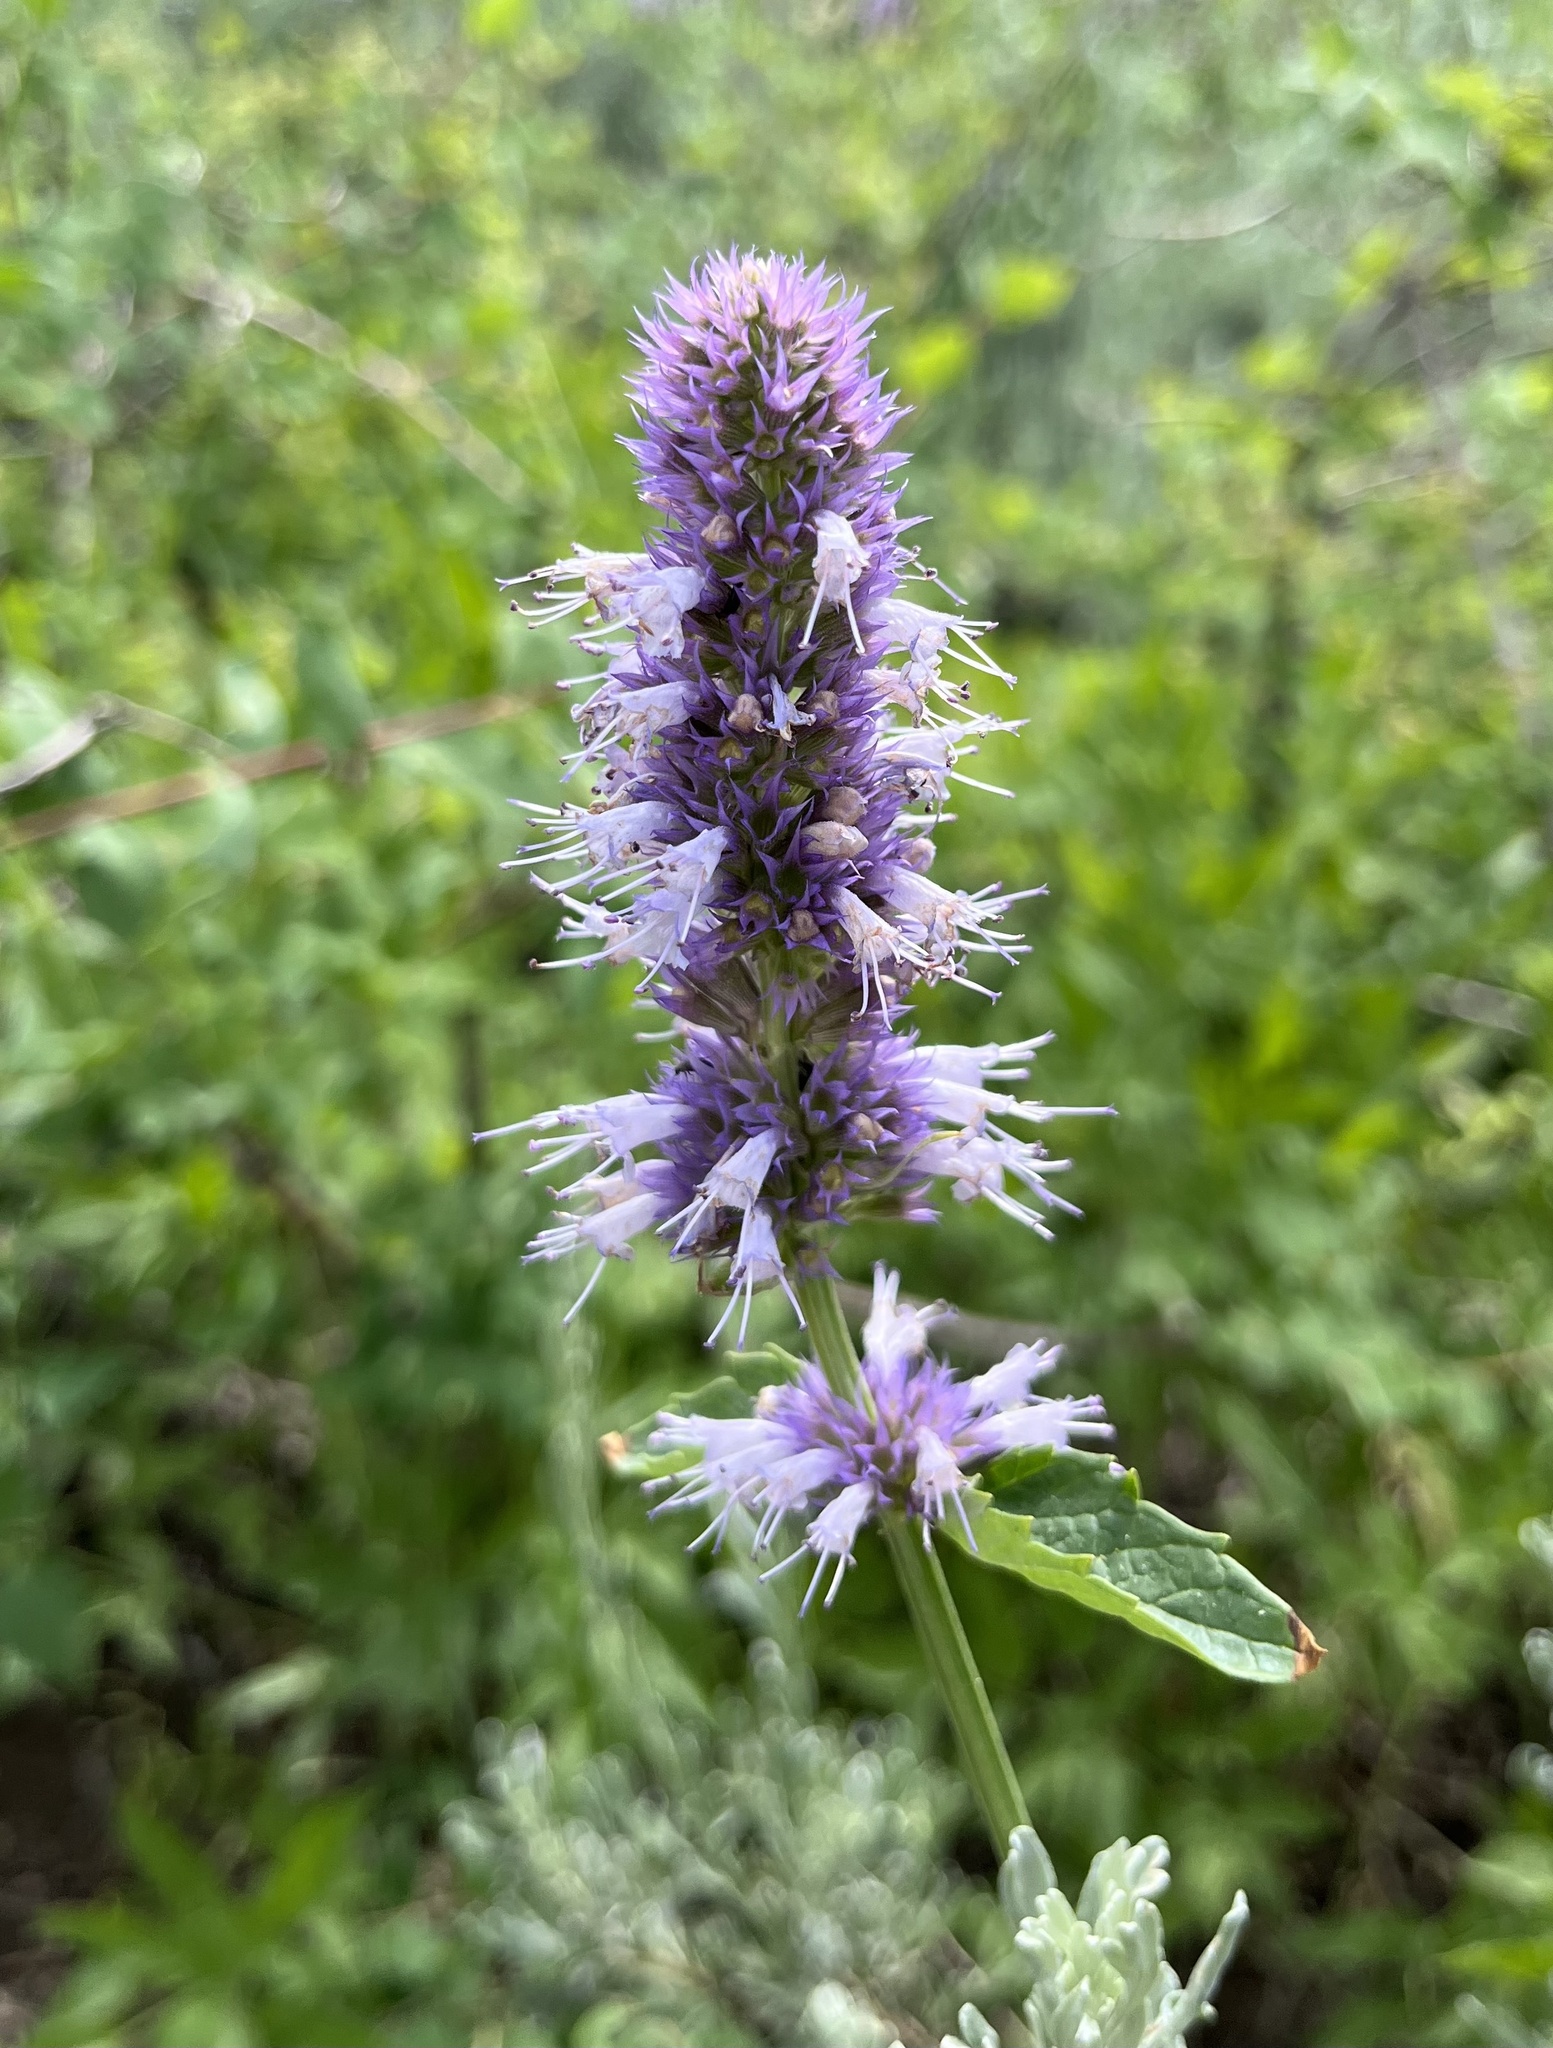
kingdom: Plantae
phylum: Tracheophyta
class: Magnoliopsida
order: Lamiales
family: Lamiaceae
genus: Agastache
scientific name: Agastache urticifolia
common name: Horsemint giant hyssop
